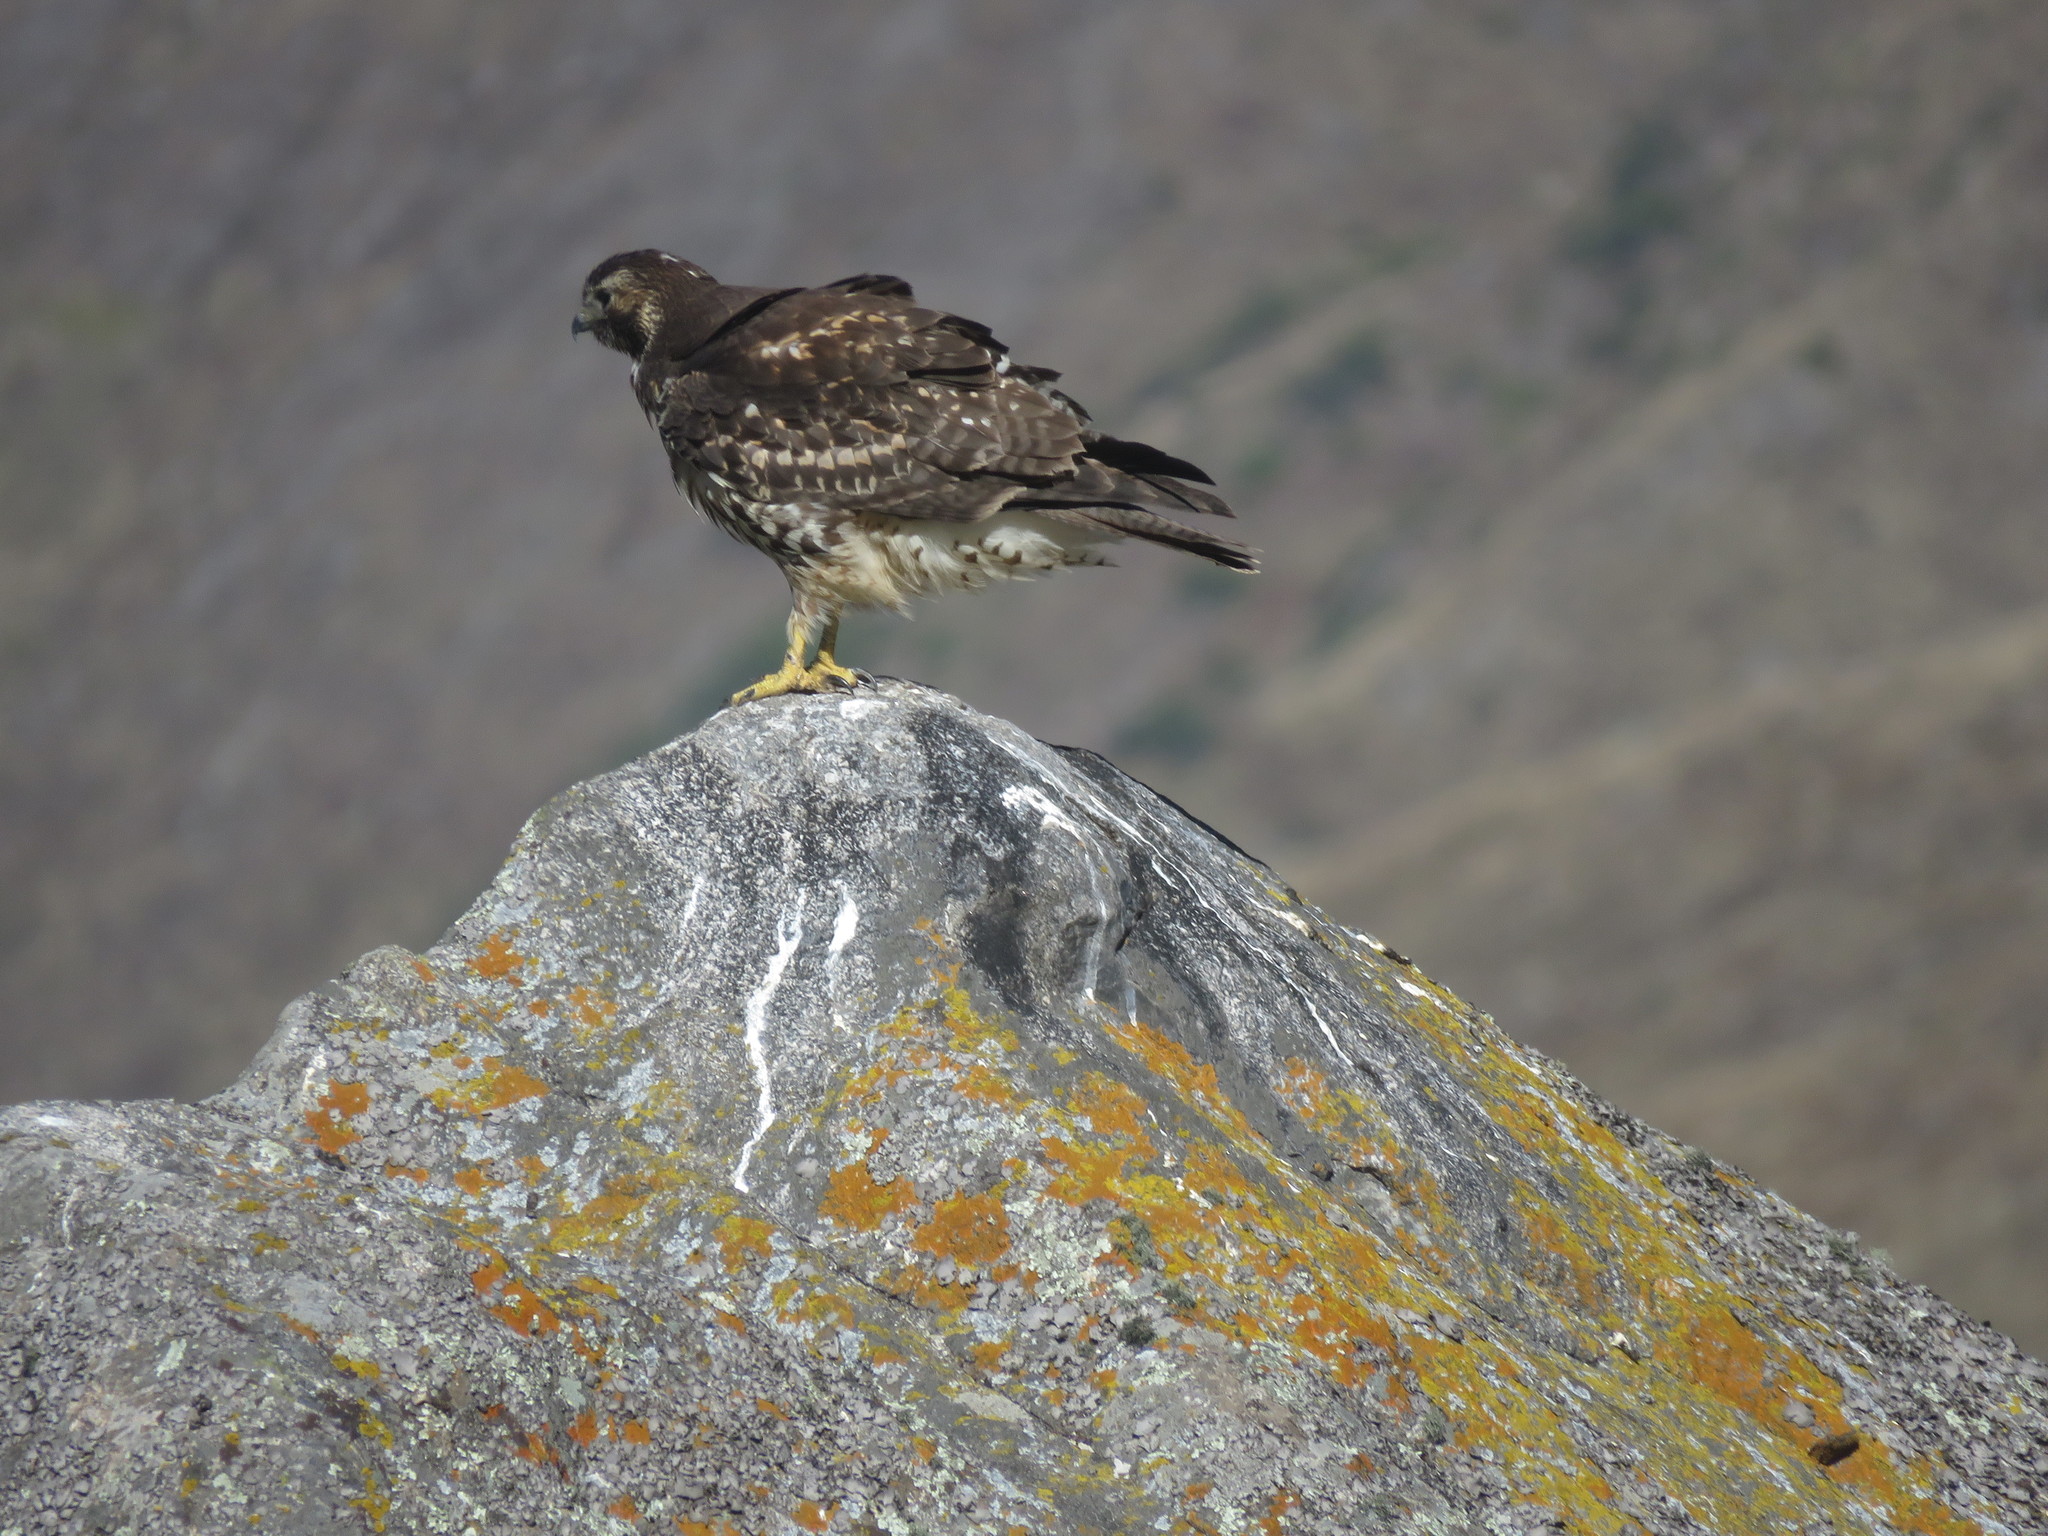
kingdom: Animalia
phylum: Chordata
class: Aves
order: Accipitriformes
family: Accipitridae
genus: Buteo
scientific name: Buteo polyosoma
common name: Variable hawk
